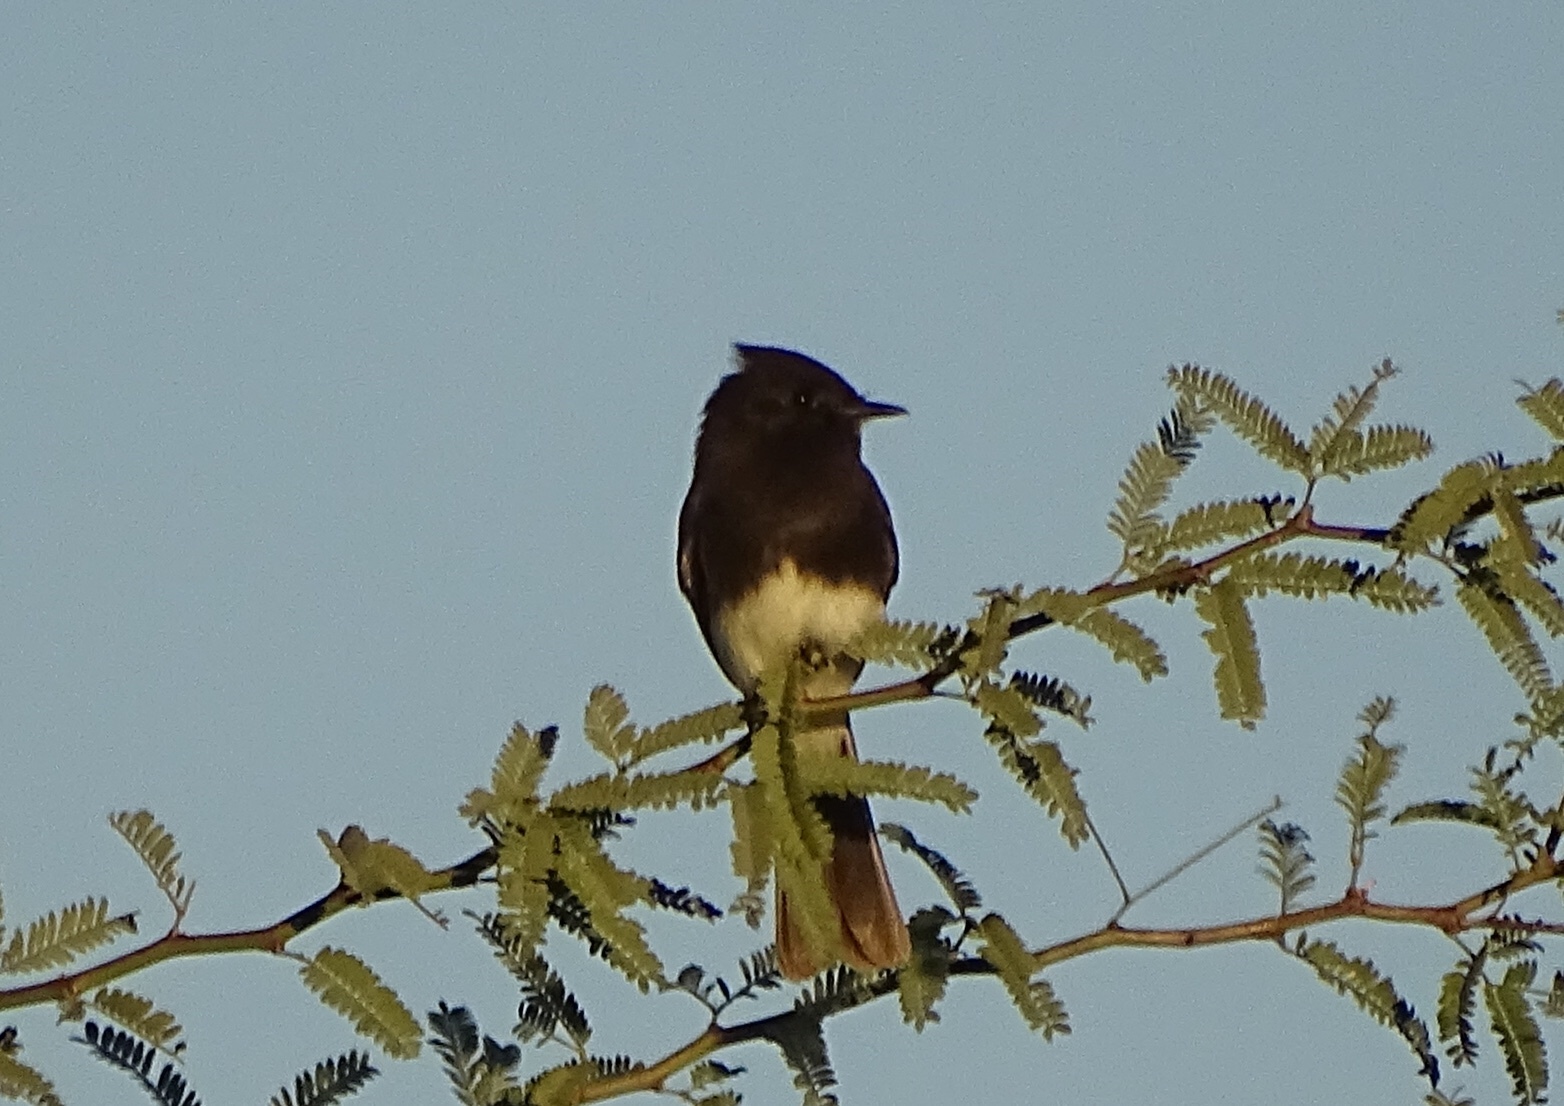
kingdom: Animalia
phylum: Chordata
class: Aves
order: Passeriformes
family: Tyrannidae
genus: Sayornis
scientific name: Sayornis nigricans
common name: Black phoebe
